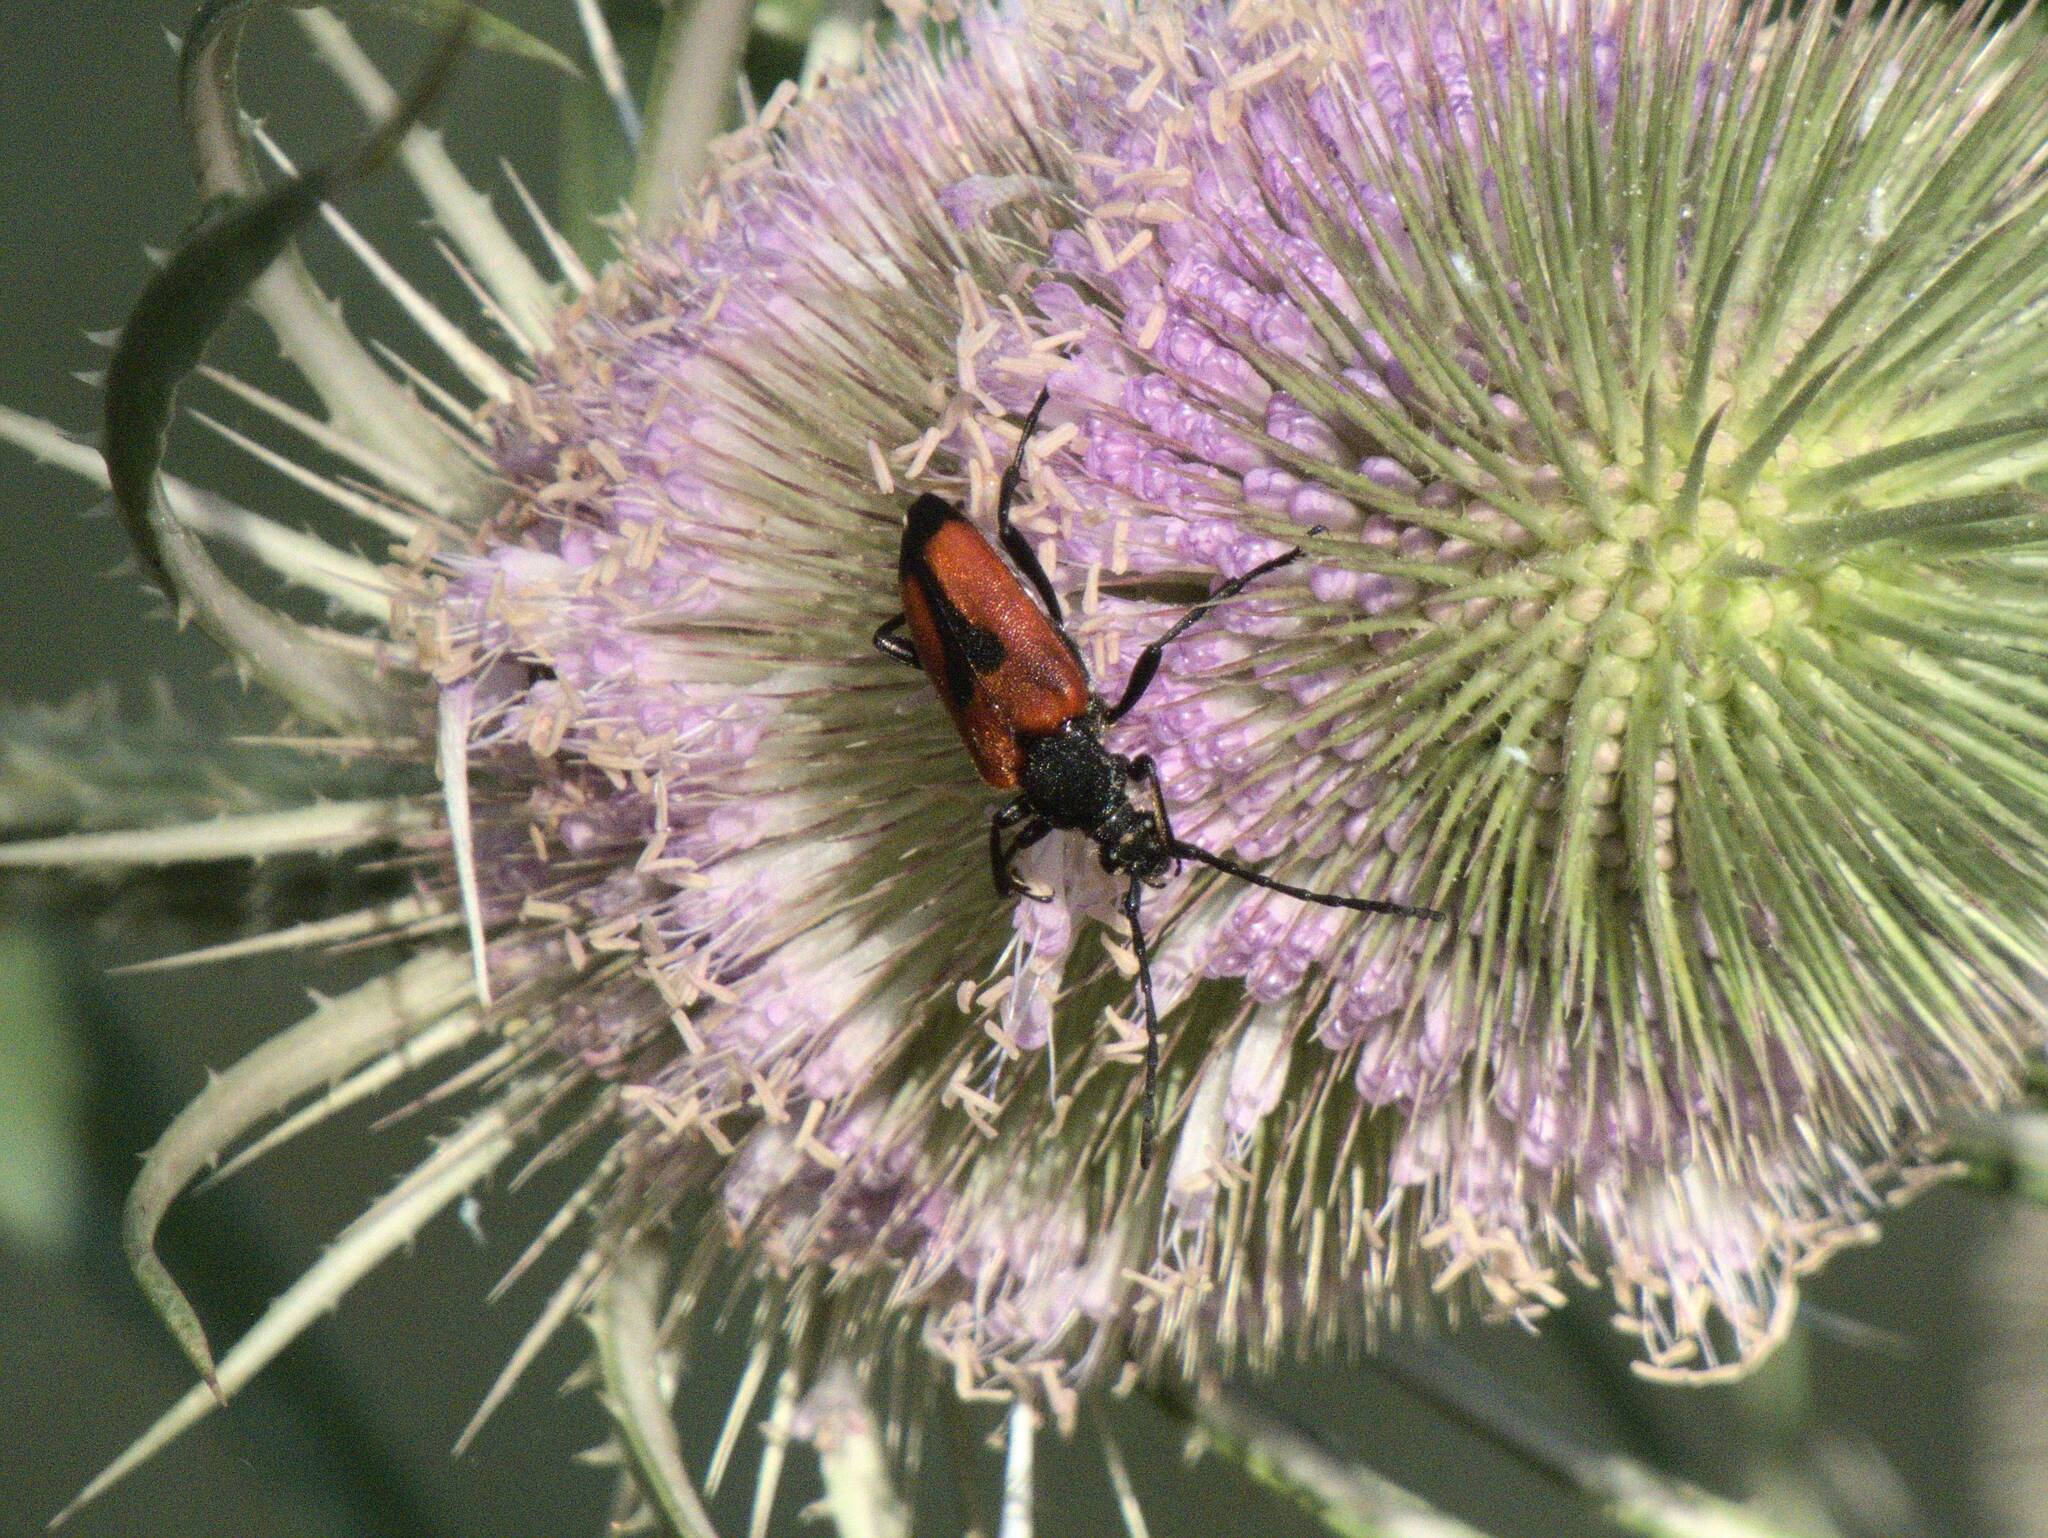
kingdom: Animalia
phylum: Arthropoda
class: Insecta
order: Coleoptera
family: Cerambycidae
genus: Stictoleptura
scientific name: Stictoleptura cordigera
